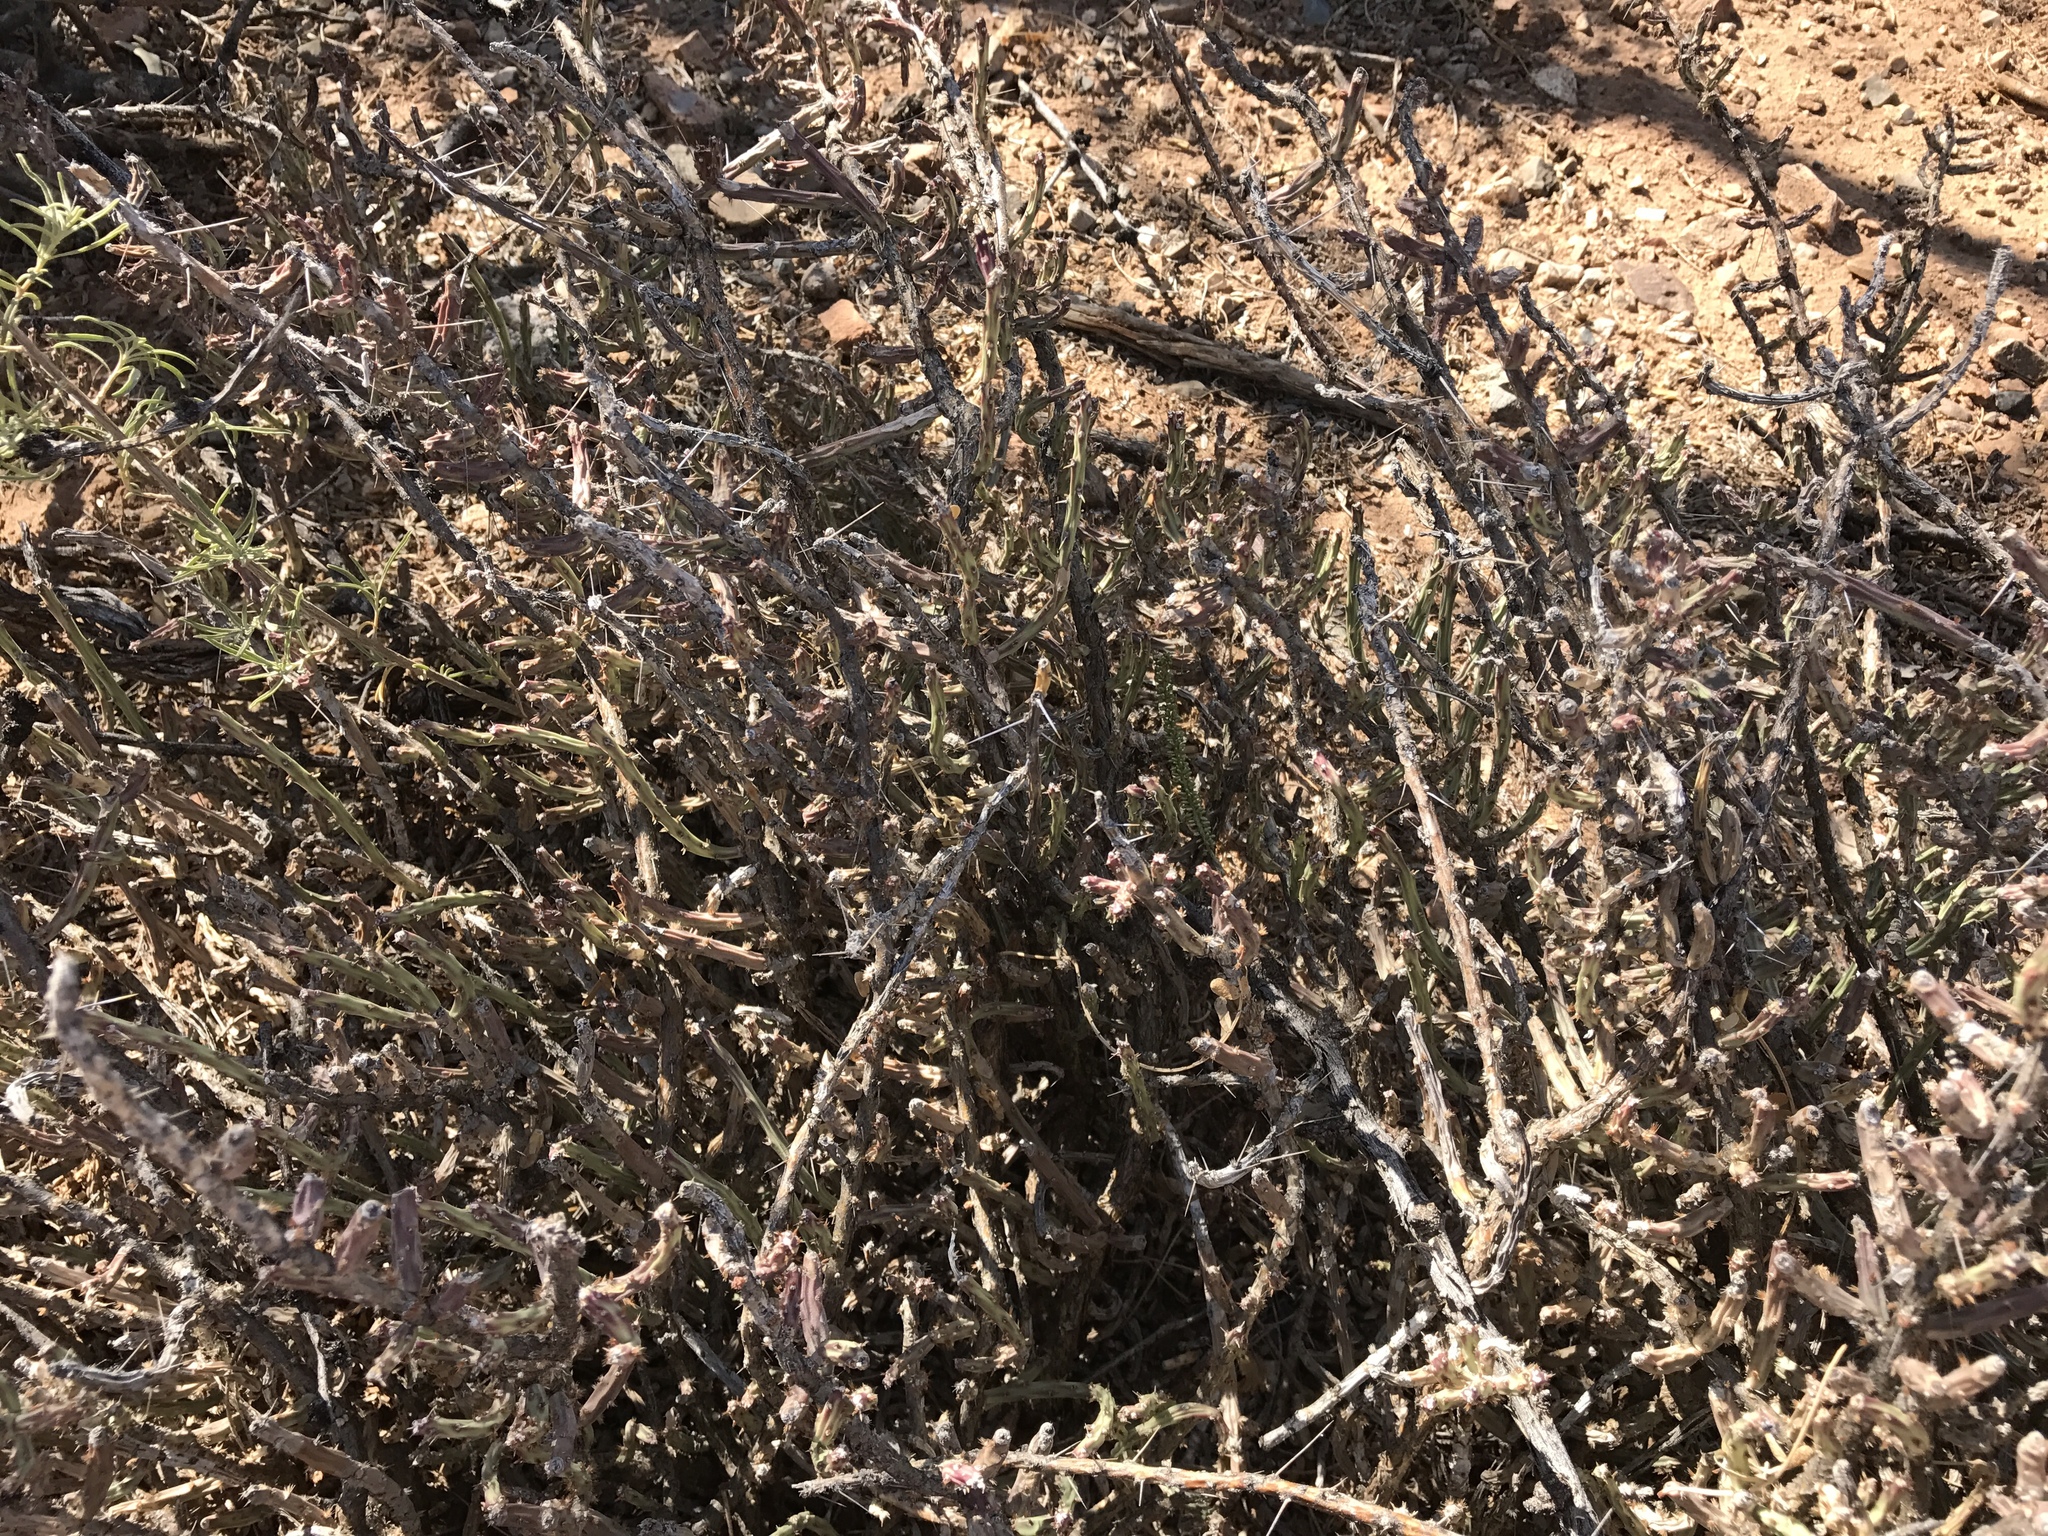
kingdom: Plantae
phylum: Tracheophyta
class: Magnoliopsida
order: Caryophyllales
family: Cactaceae
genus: Cylindropuntia
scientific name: Cylindropuntia leptocaulis
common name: Christmas cactus
